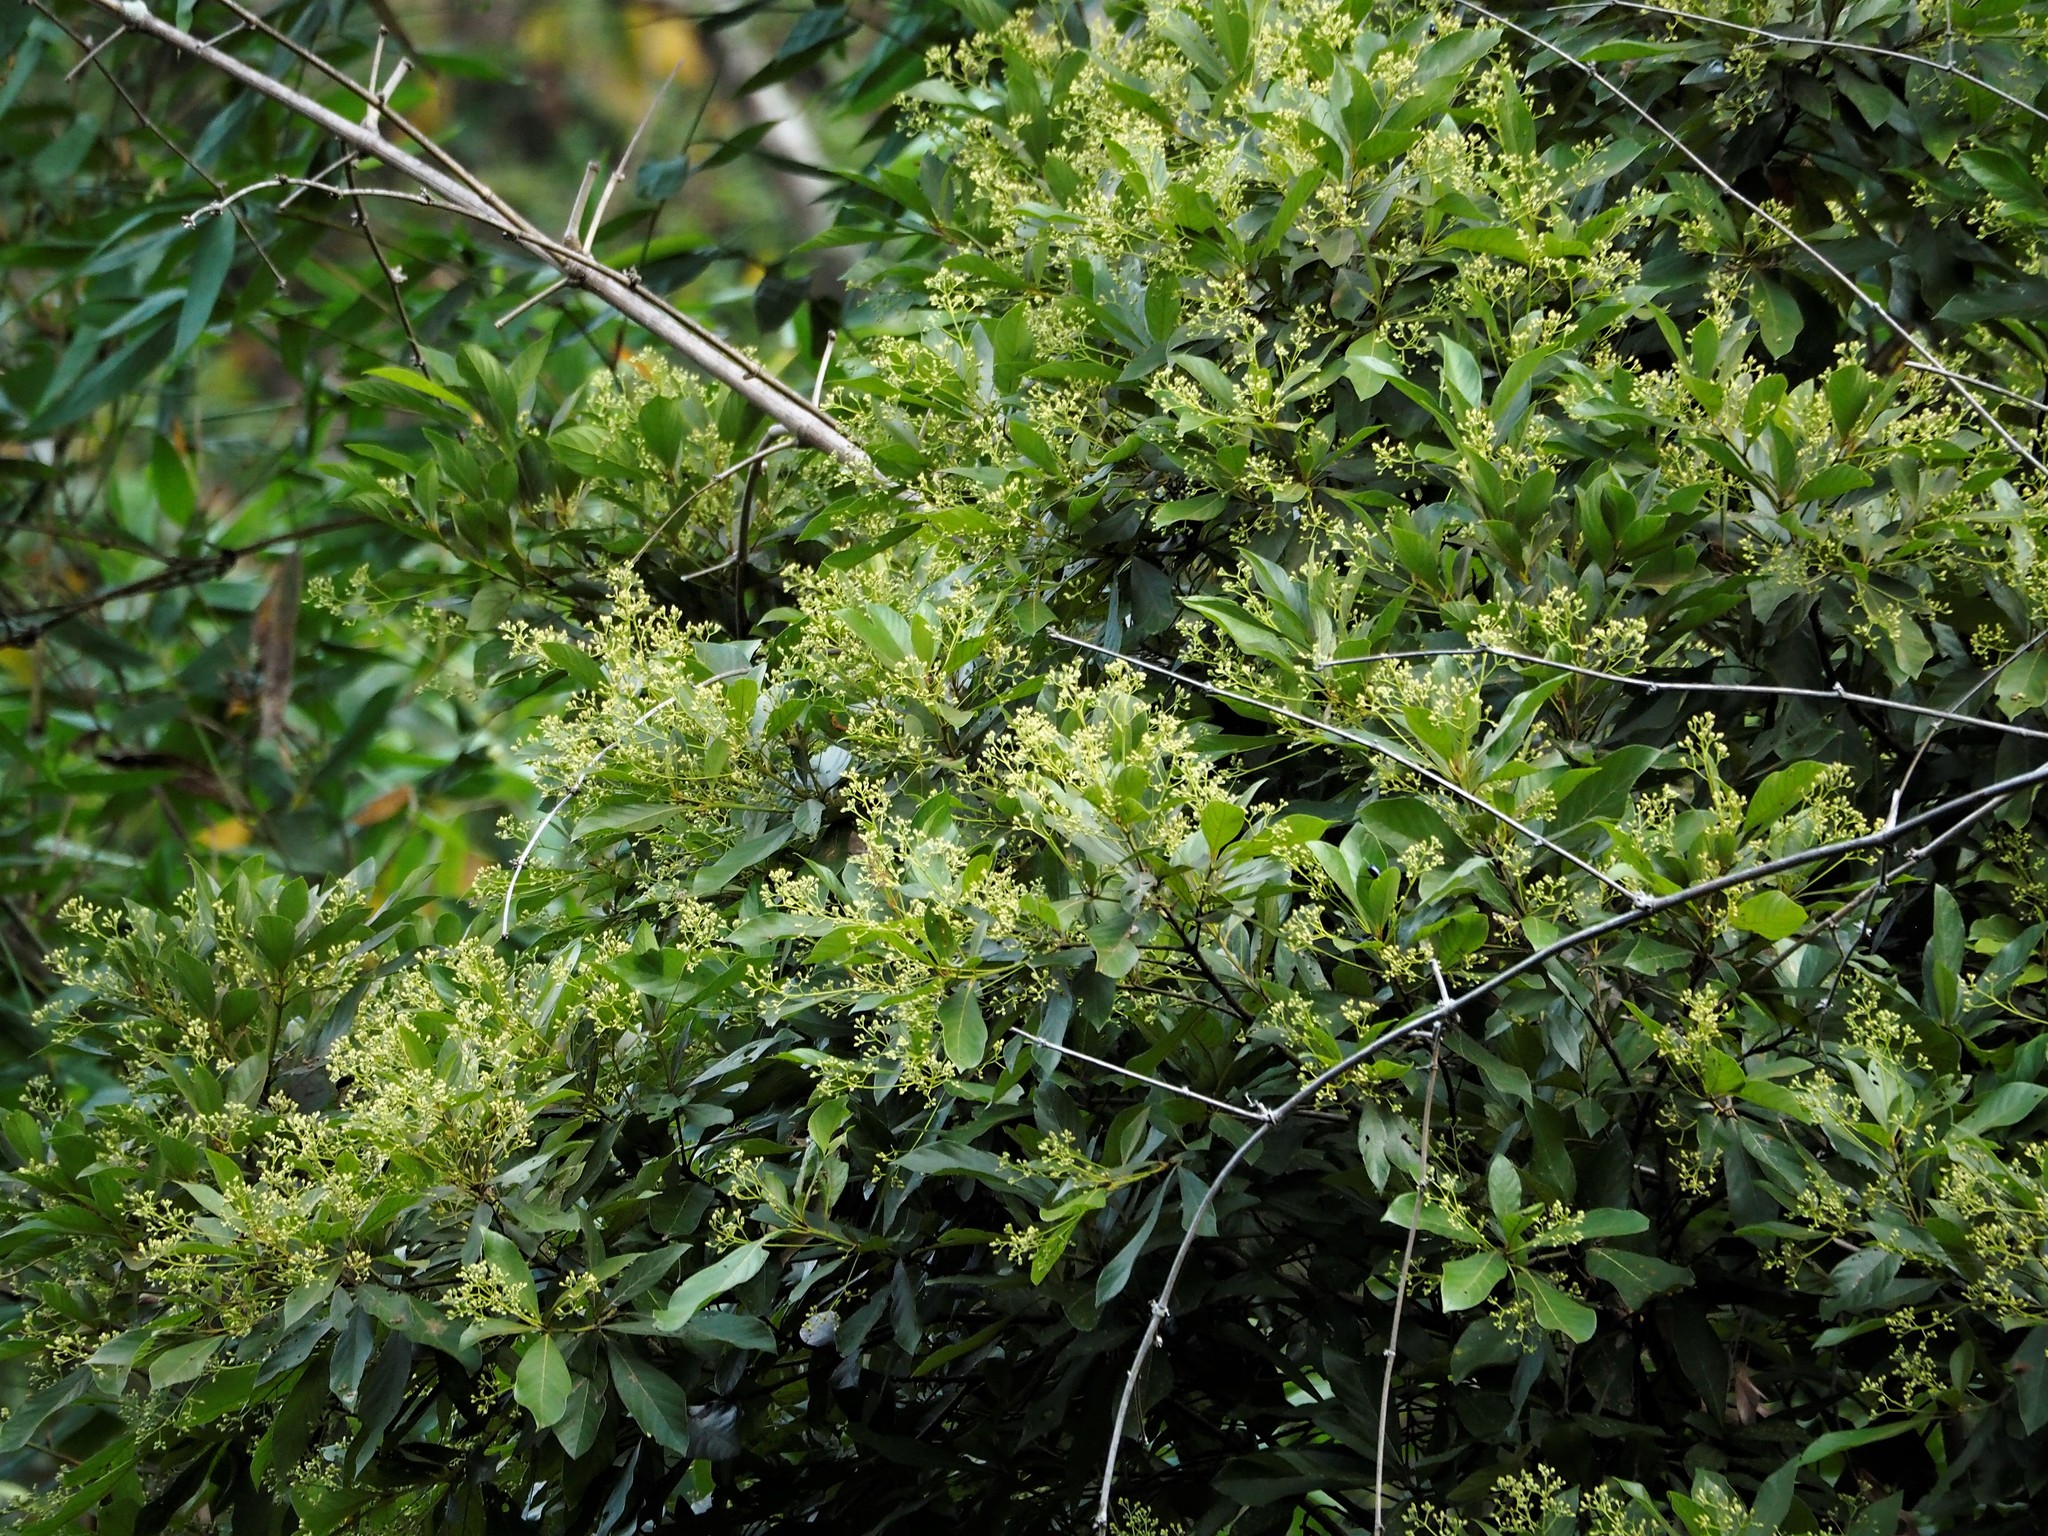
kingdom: Plantae
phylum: Tracheophyta
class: Magnoliopsida
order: Laurales
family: Lauraceae
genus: Phoebe
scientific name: Phoebe formosana
